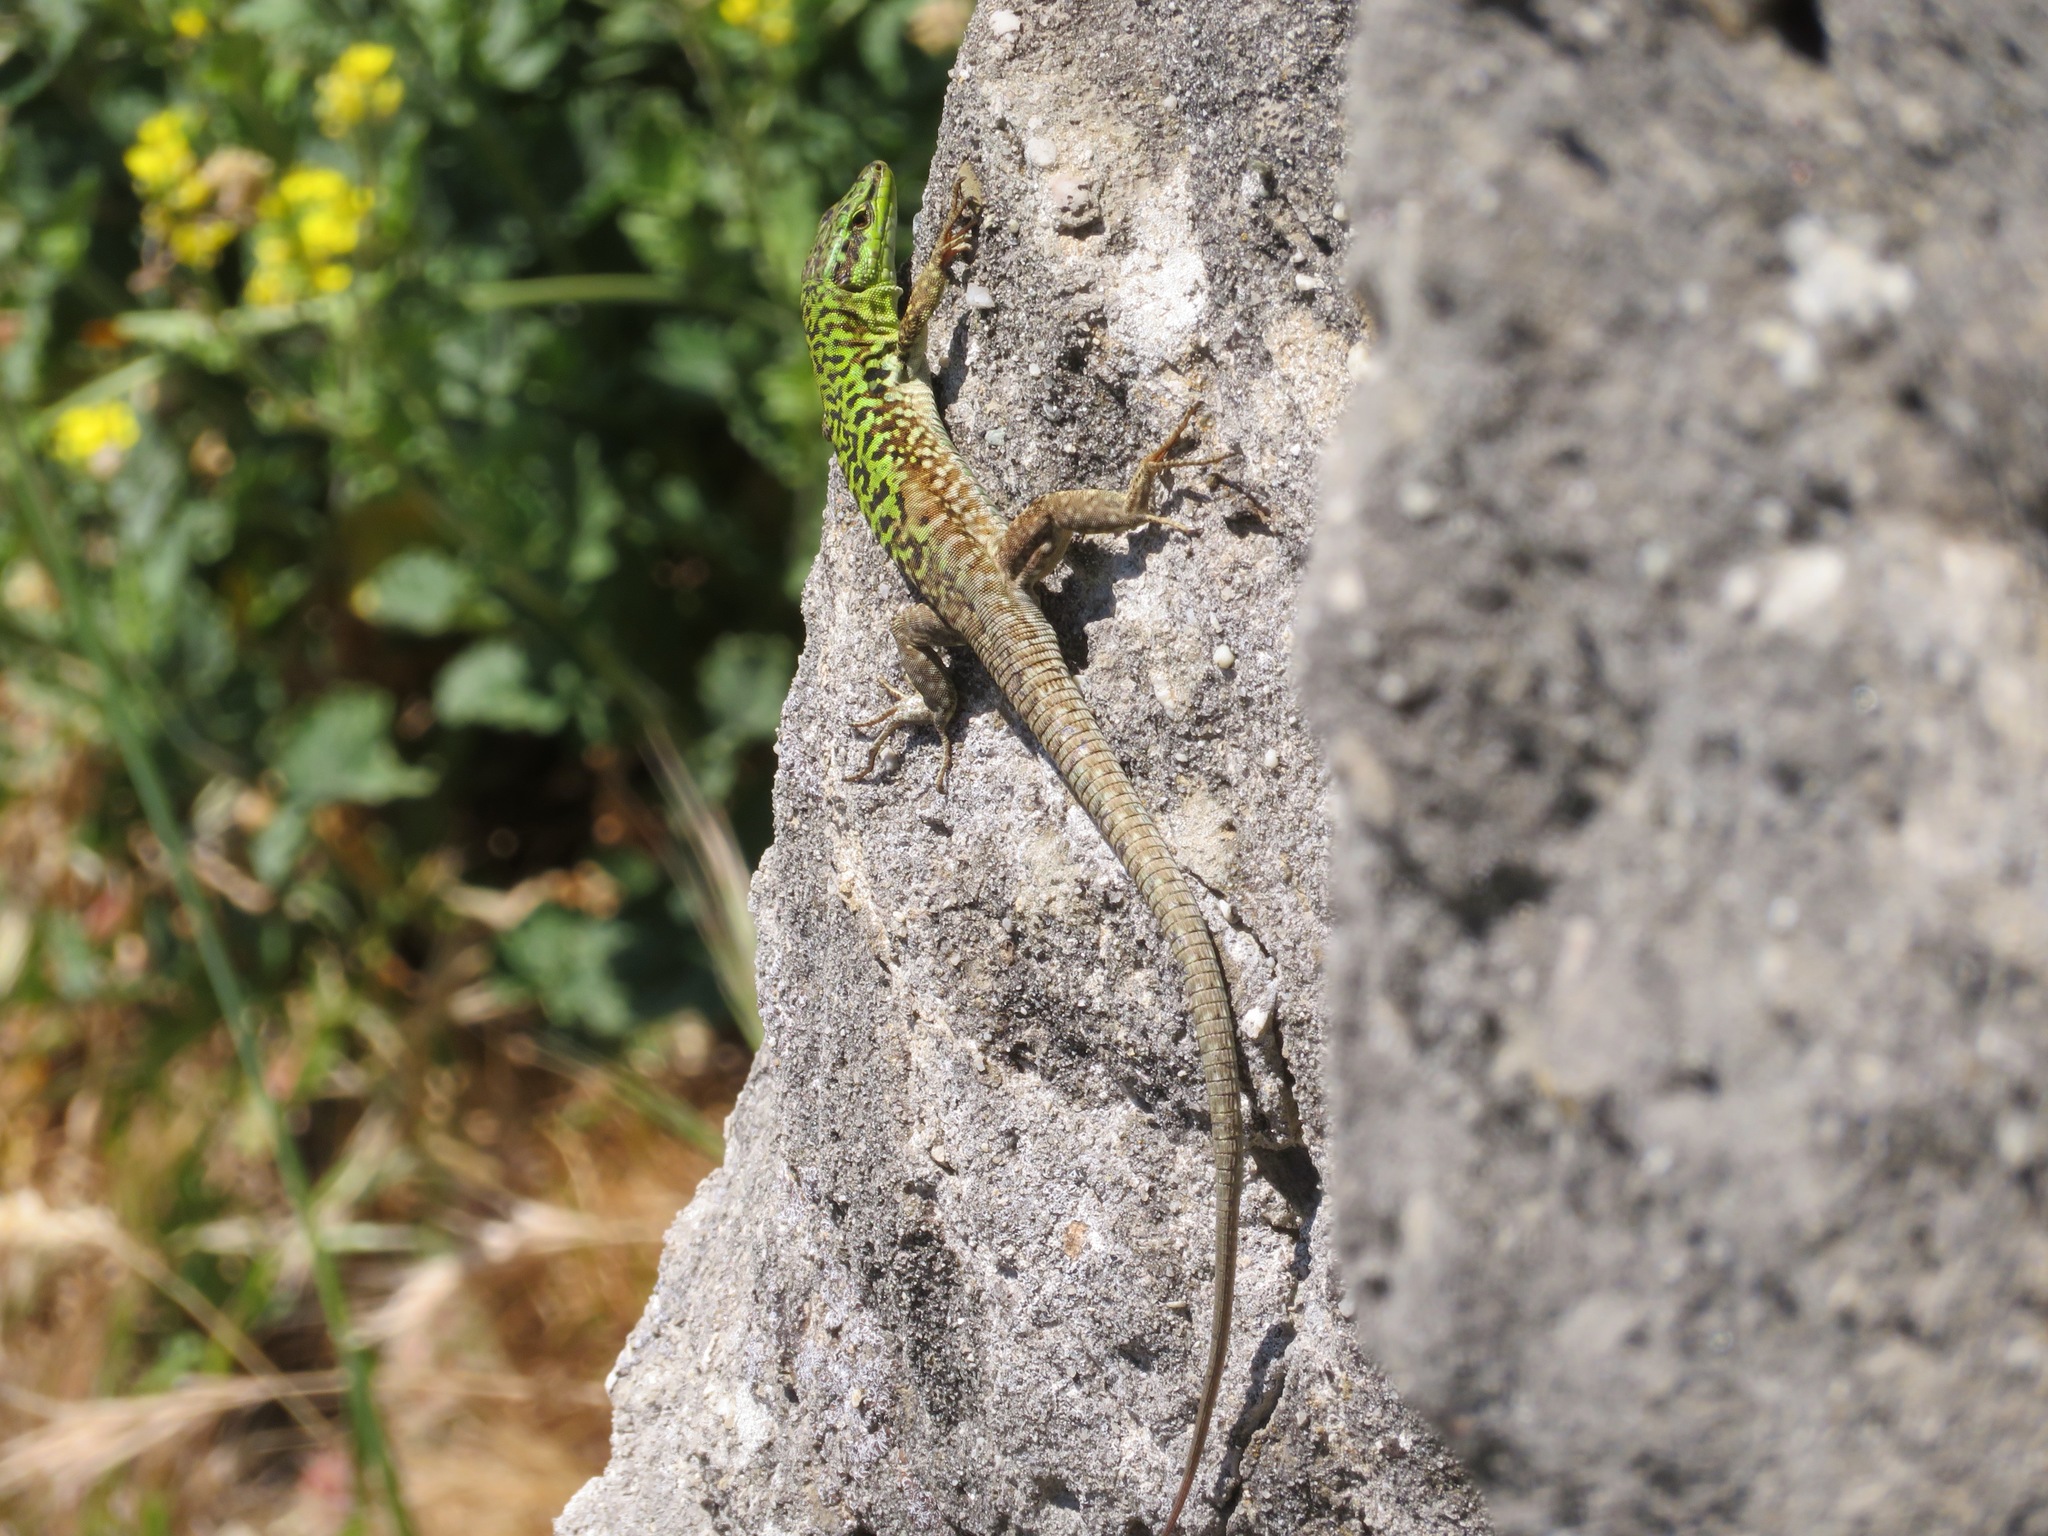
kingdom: Animalia
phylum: Chordata
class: Squamata
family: Lacertidae
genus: Podarcis
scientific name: Podarcis siculus
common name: Italian wall lizard
